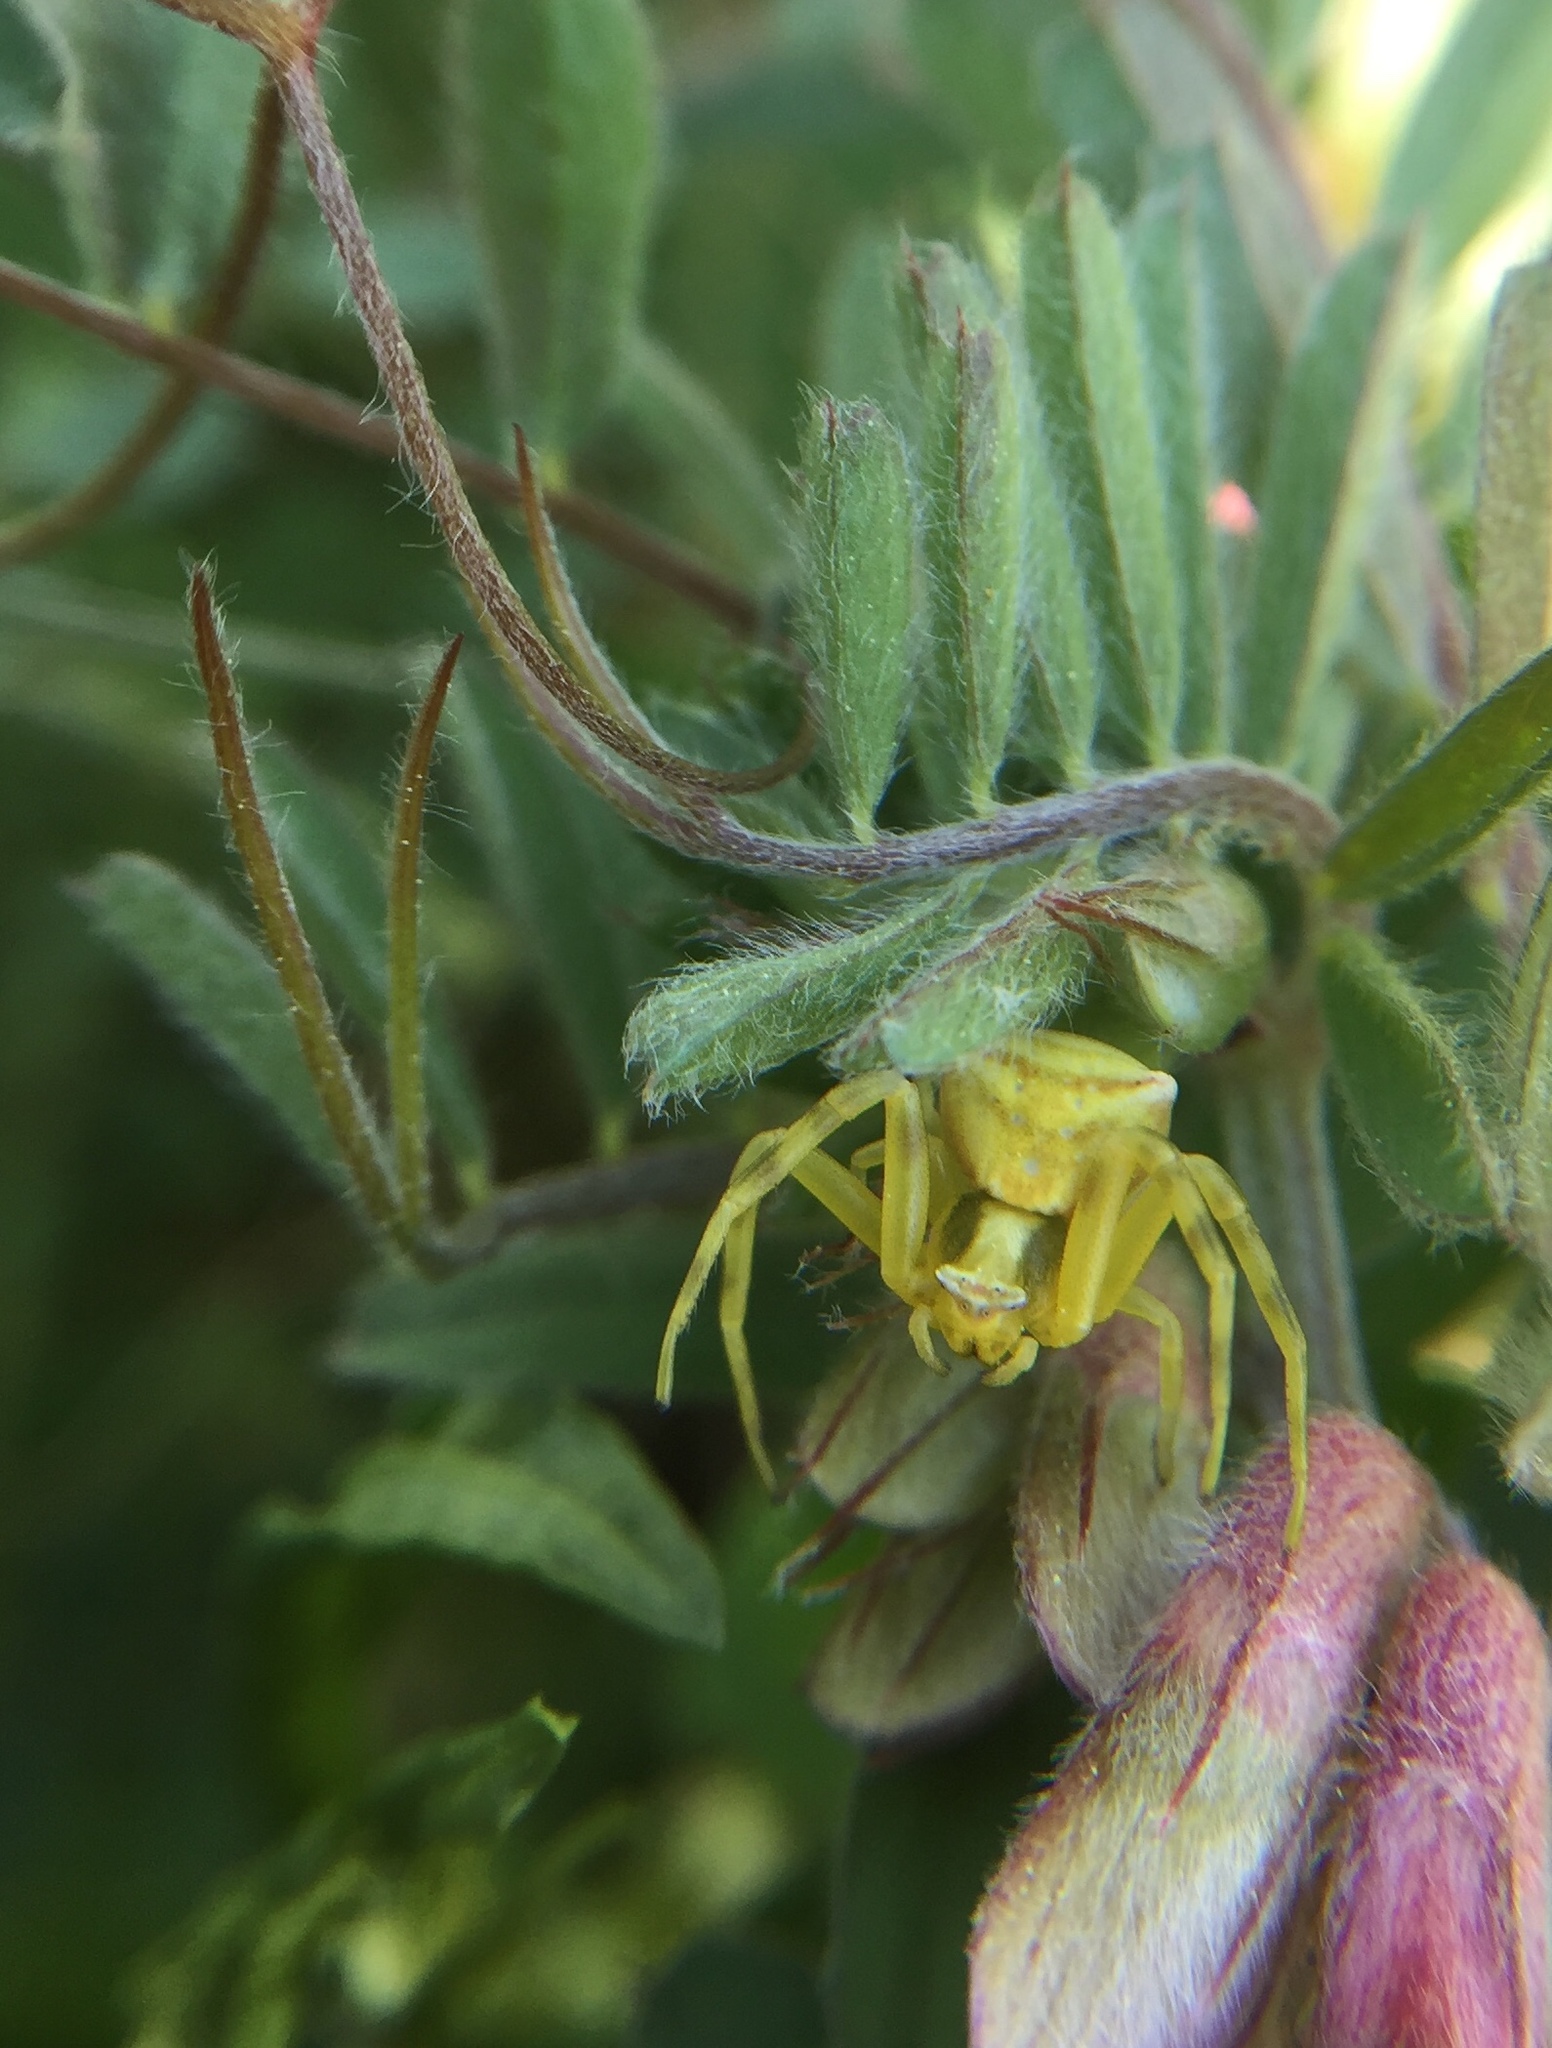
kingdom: Animalia
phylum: Arthropoda
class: Arachnida
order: Araneae
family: Thomisidae
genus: Thomisus
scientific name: Thomisus onustus
